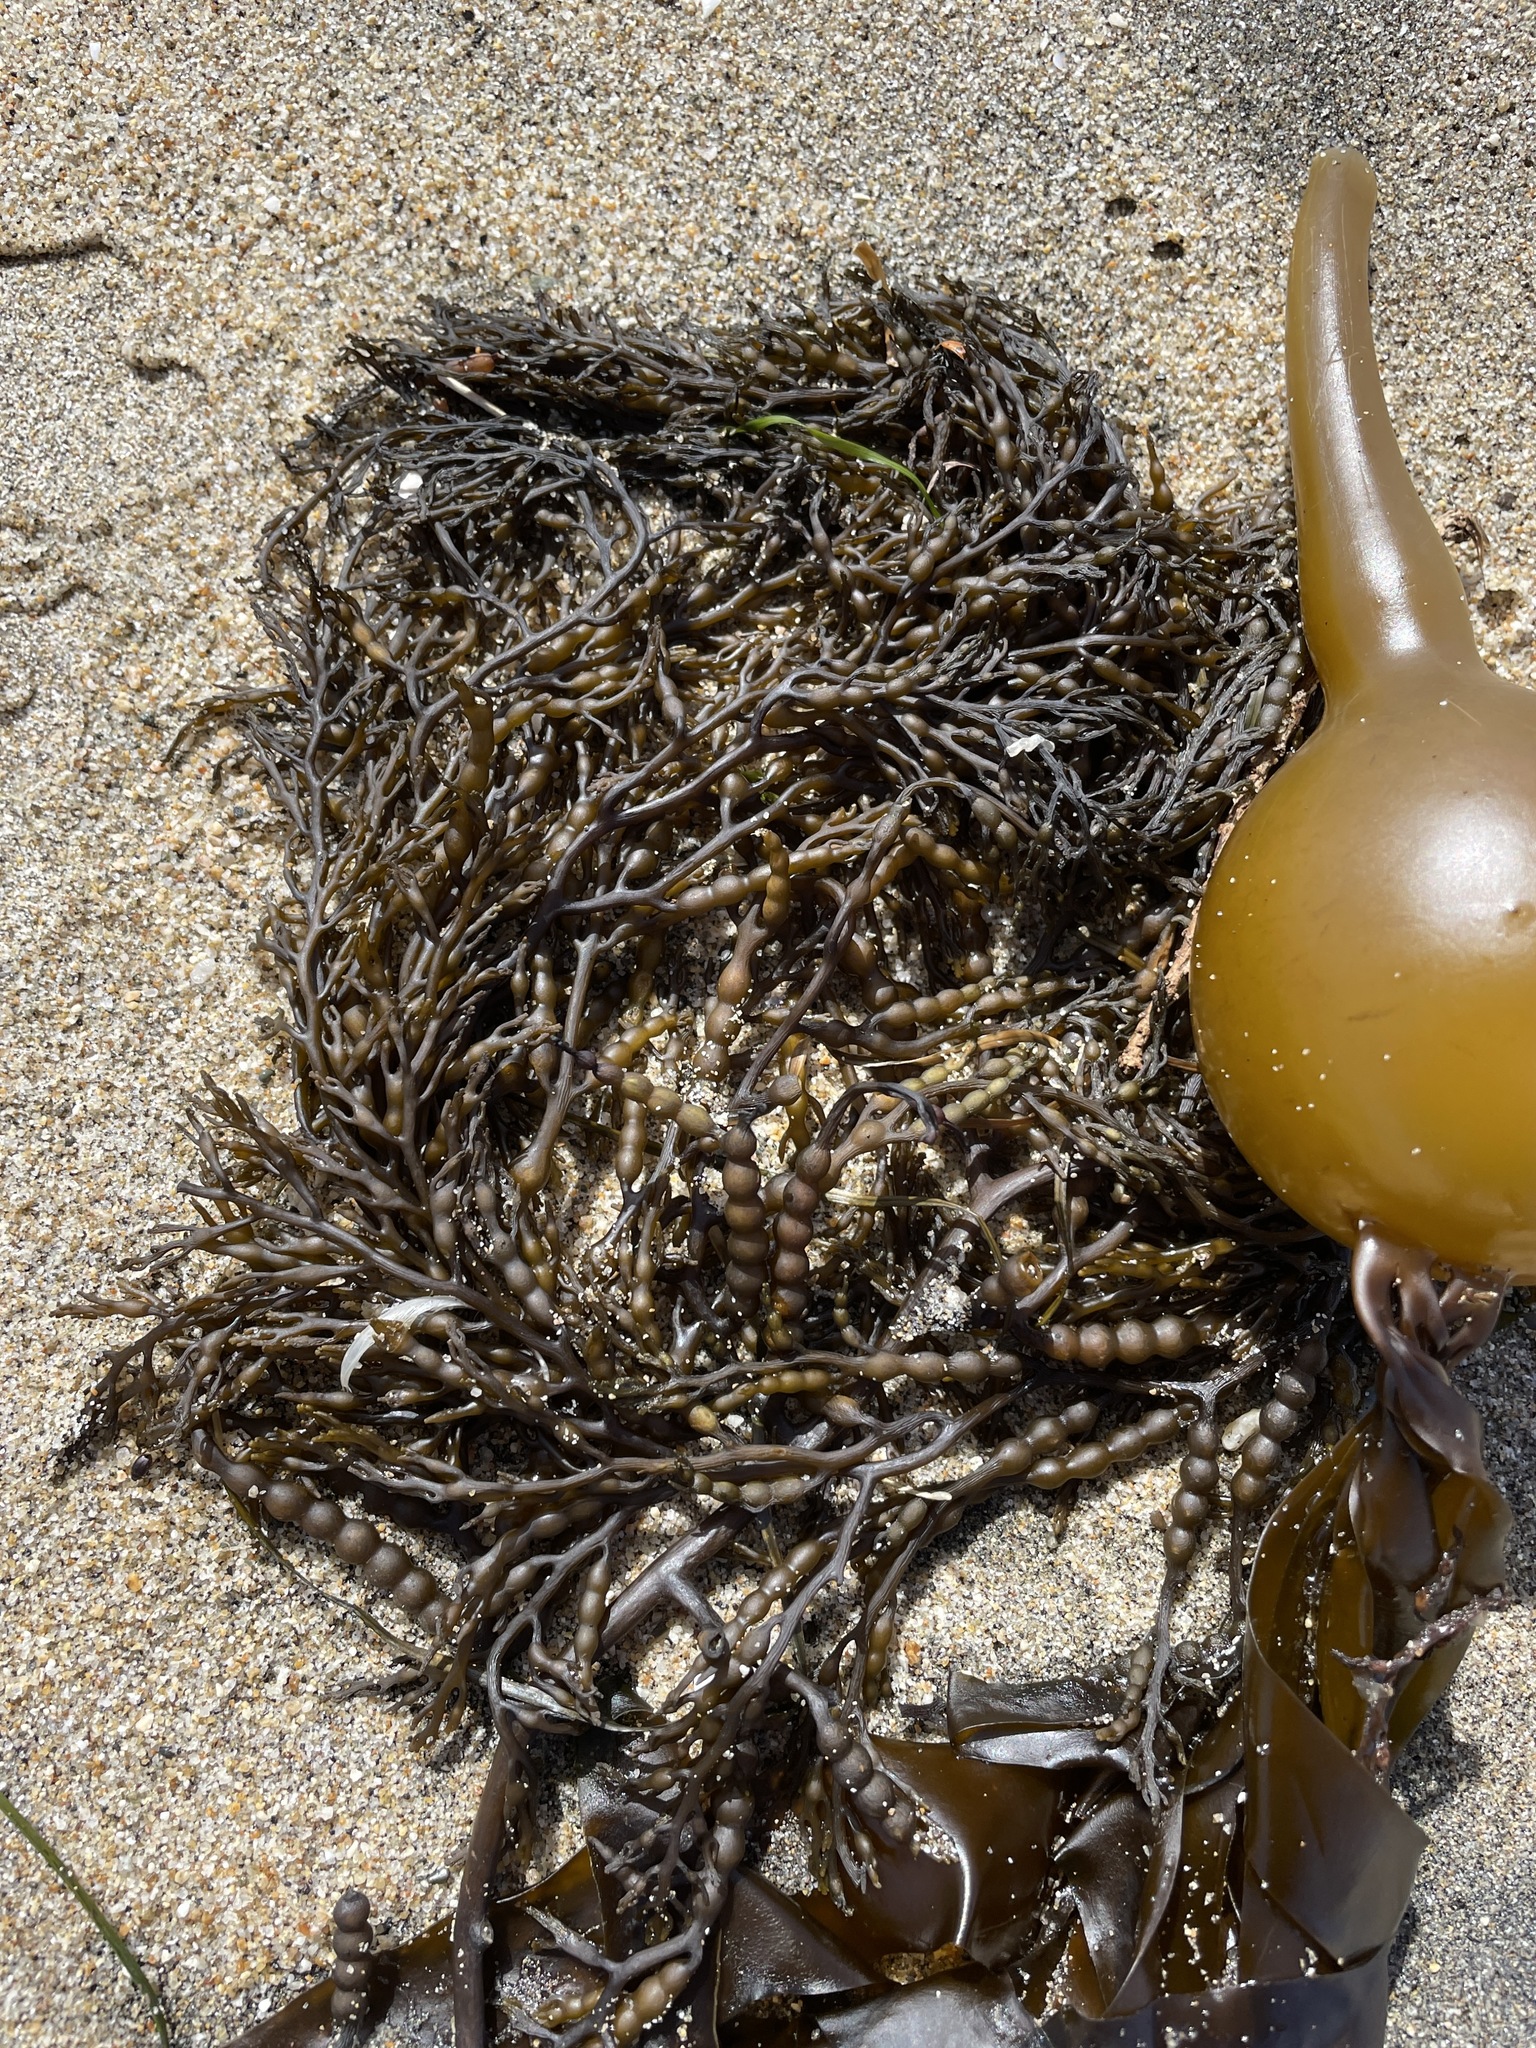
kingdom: Chromista
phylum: Ochrophyta
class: Phaeophyceae
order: Fucales
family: Sargassaceae
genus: Stephanocystis
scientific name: Stephanocystis
